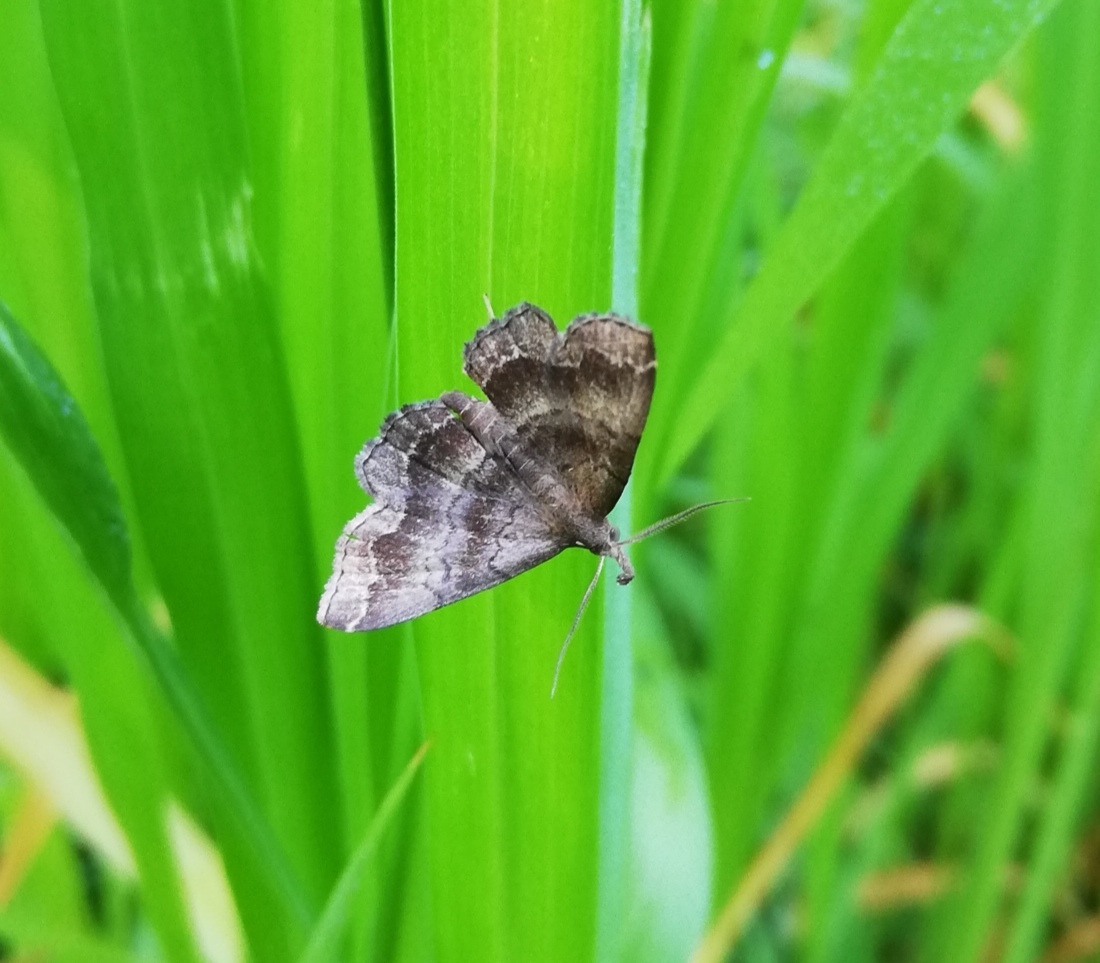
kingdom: Animalia
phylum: Arthropoda
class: Insecta
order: Lepidoptera
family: Erebidae
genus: Phalaenostola
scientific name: Phalaenostola larentioides
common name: Black-banded owlet
